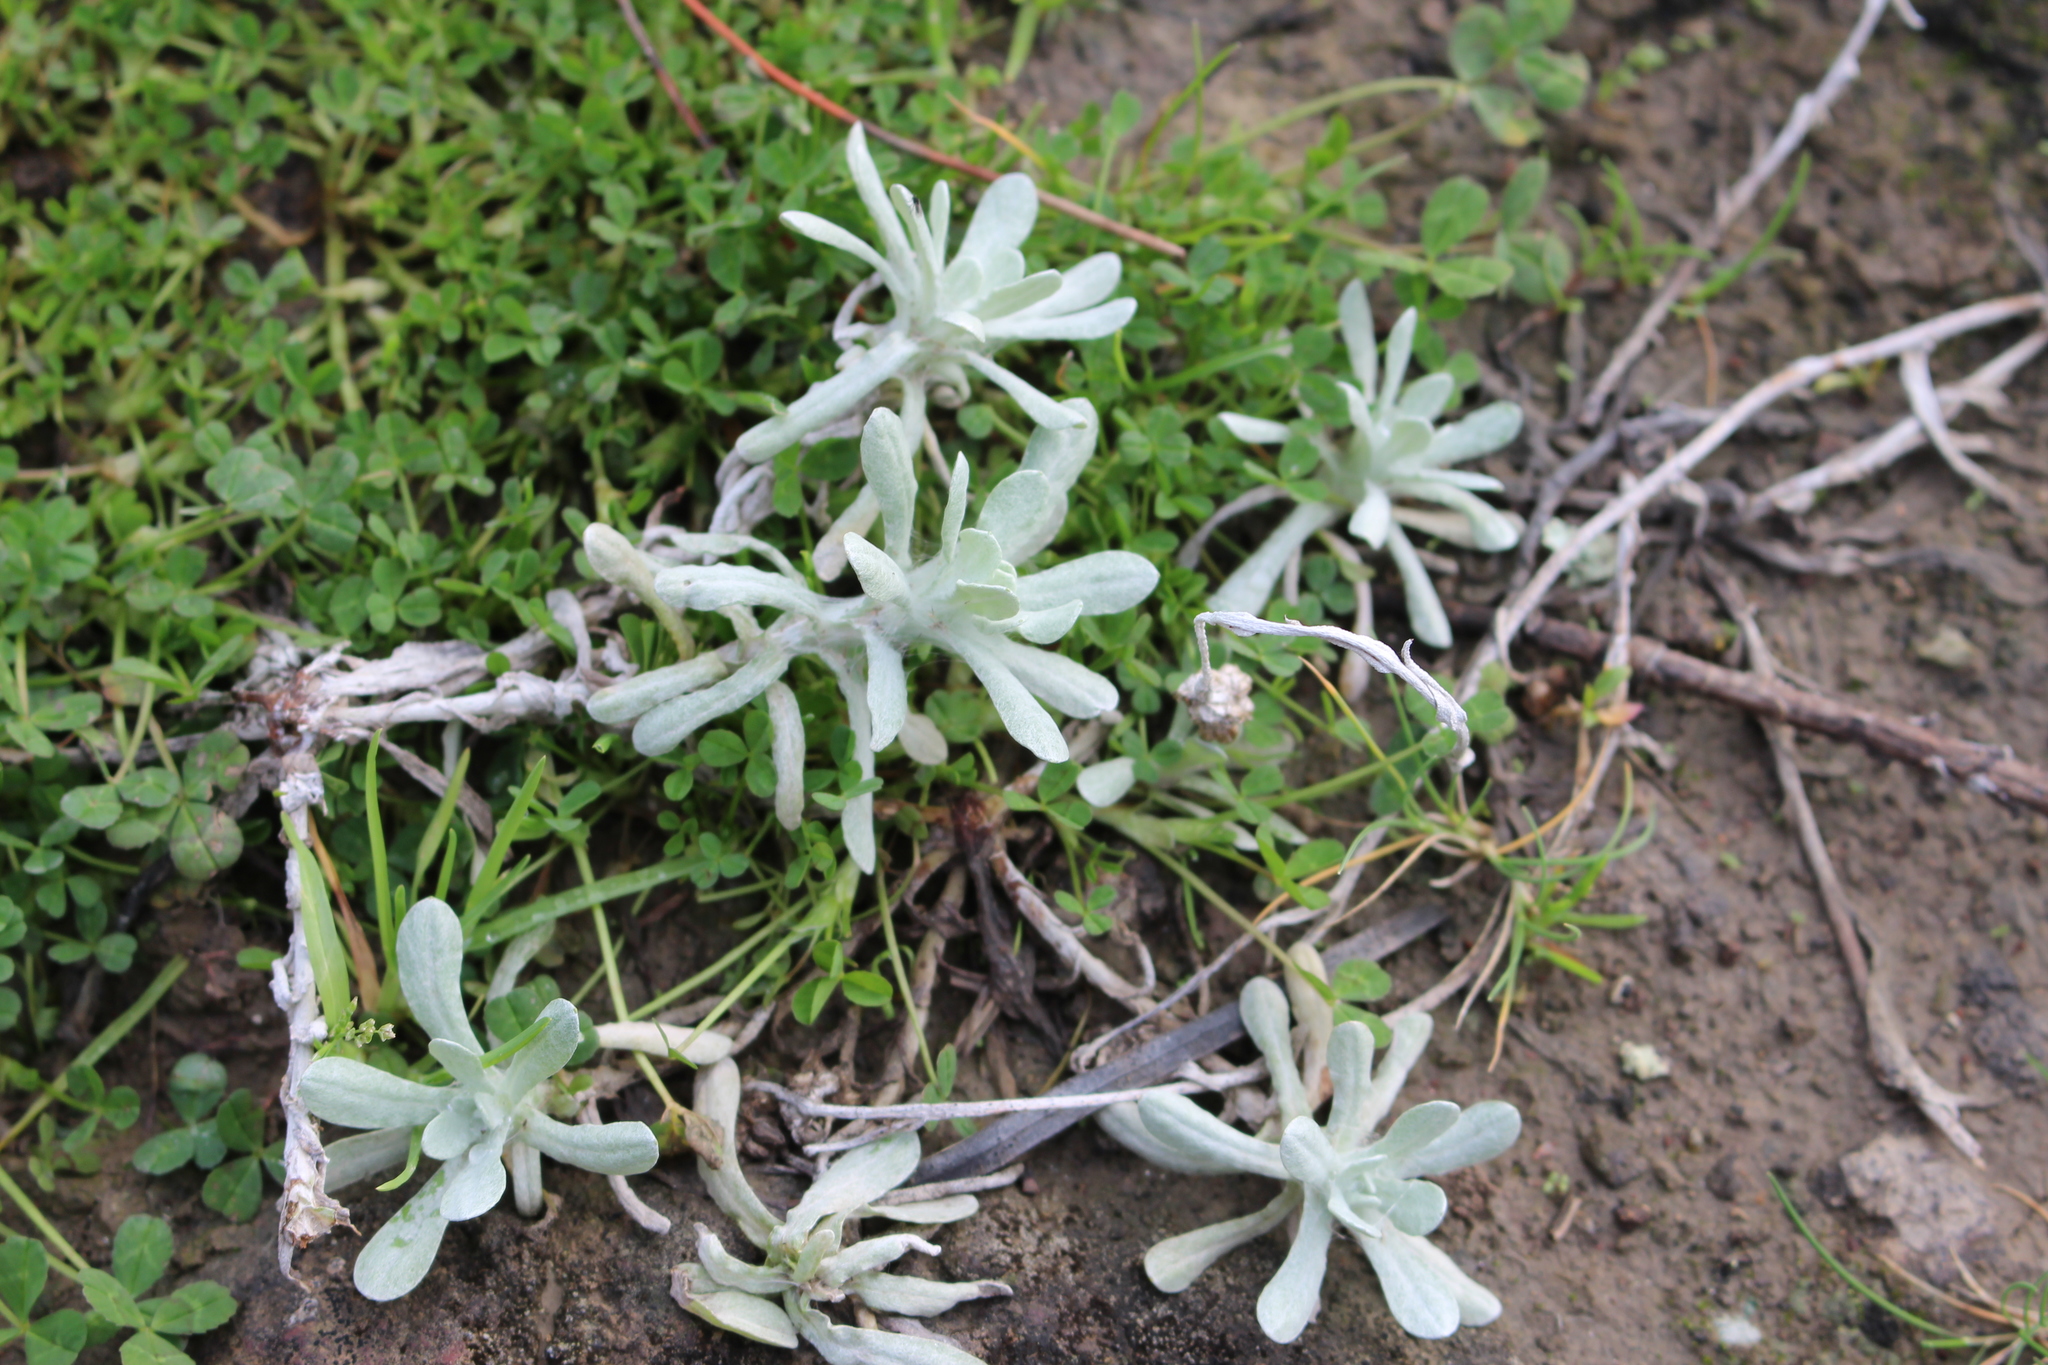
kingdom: Plantae
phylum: Tracheophyta
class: Magnoliopsida
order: Asterales
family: Asteraceae
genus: Helichrysum
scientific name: Helichrysum luteoalbum
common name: Daisy
